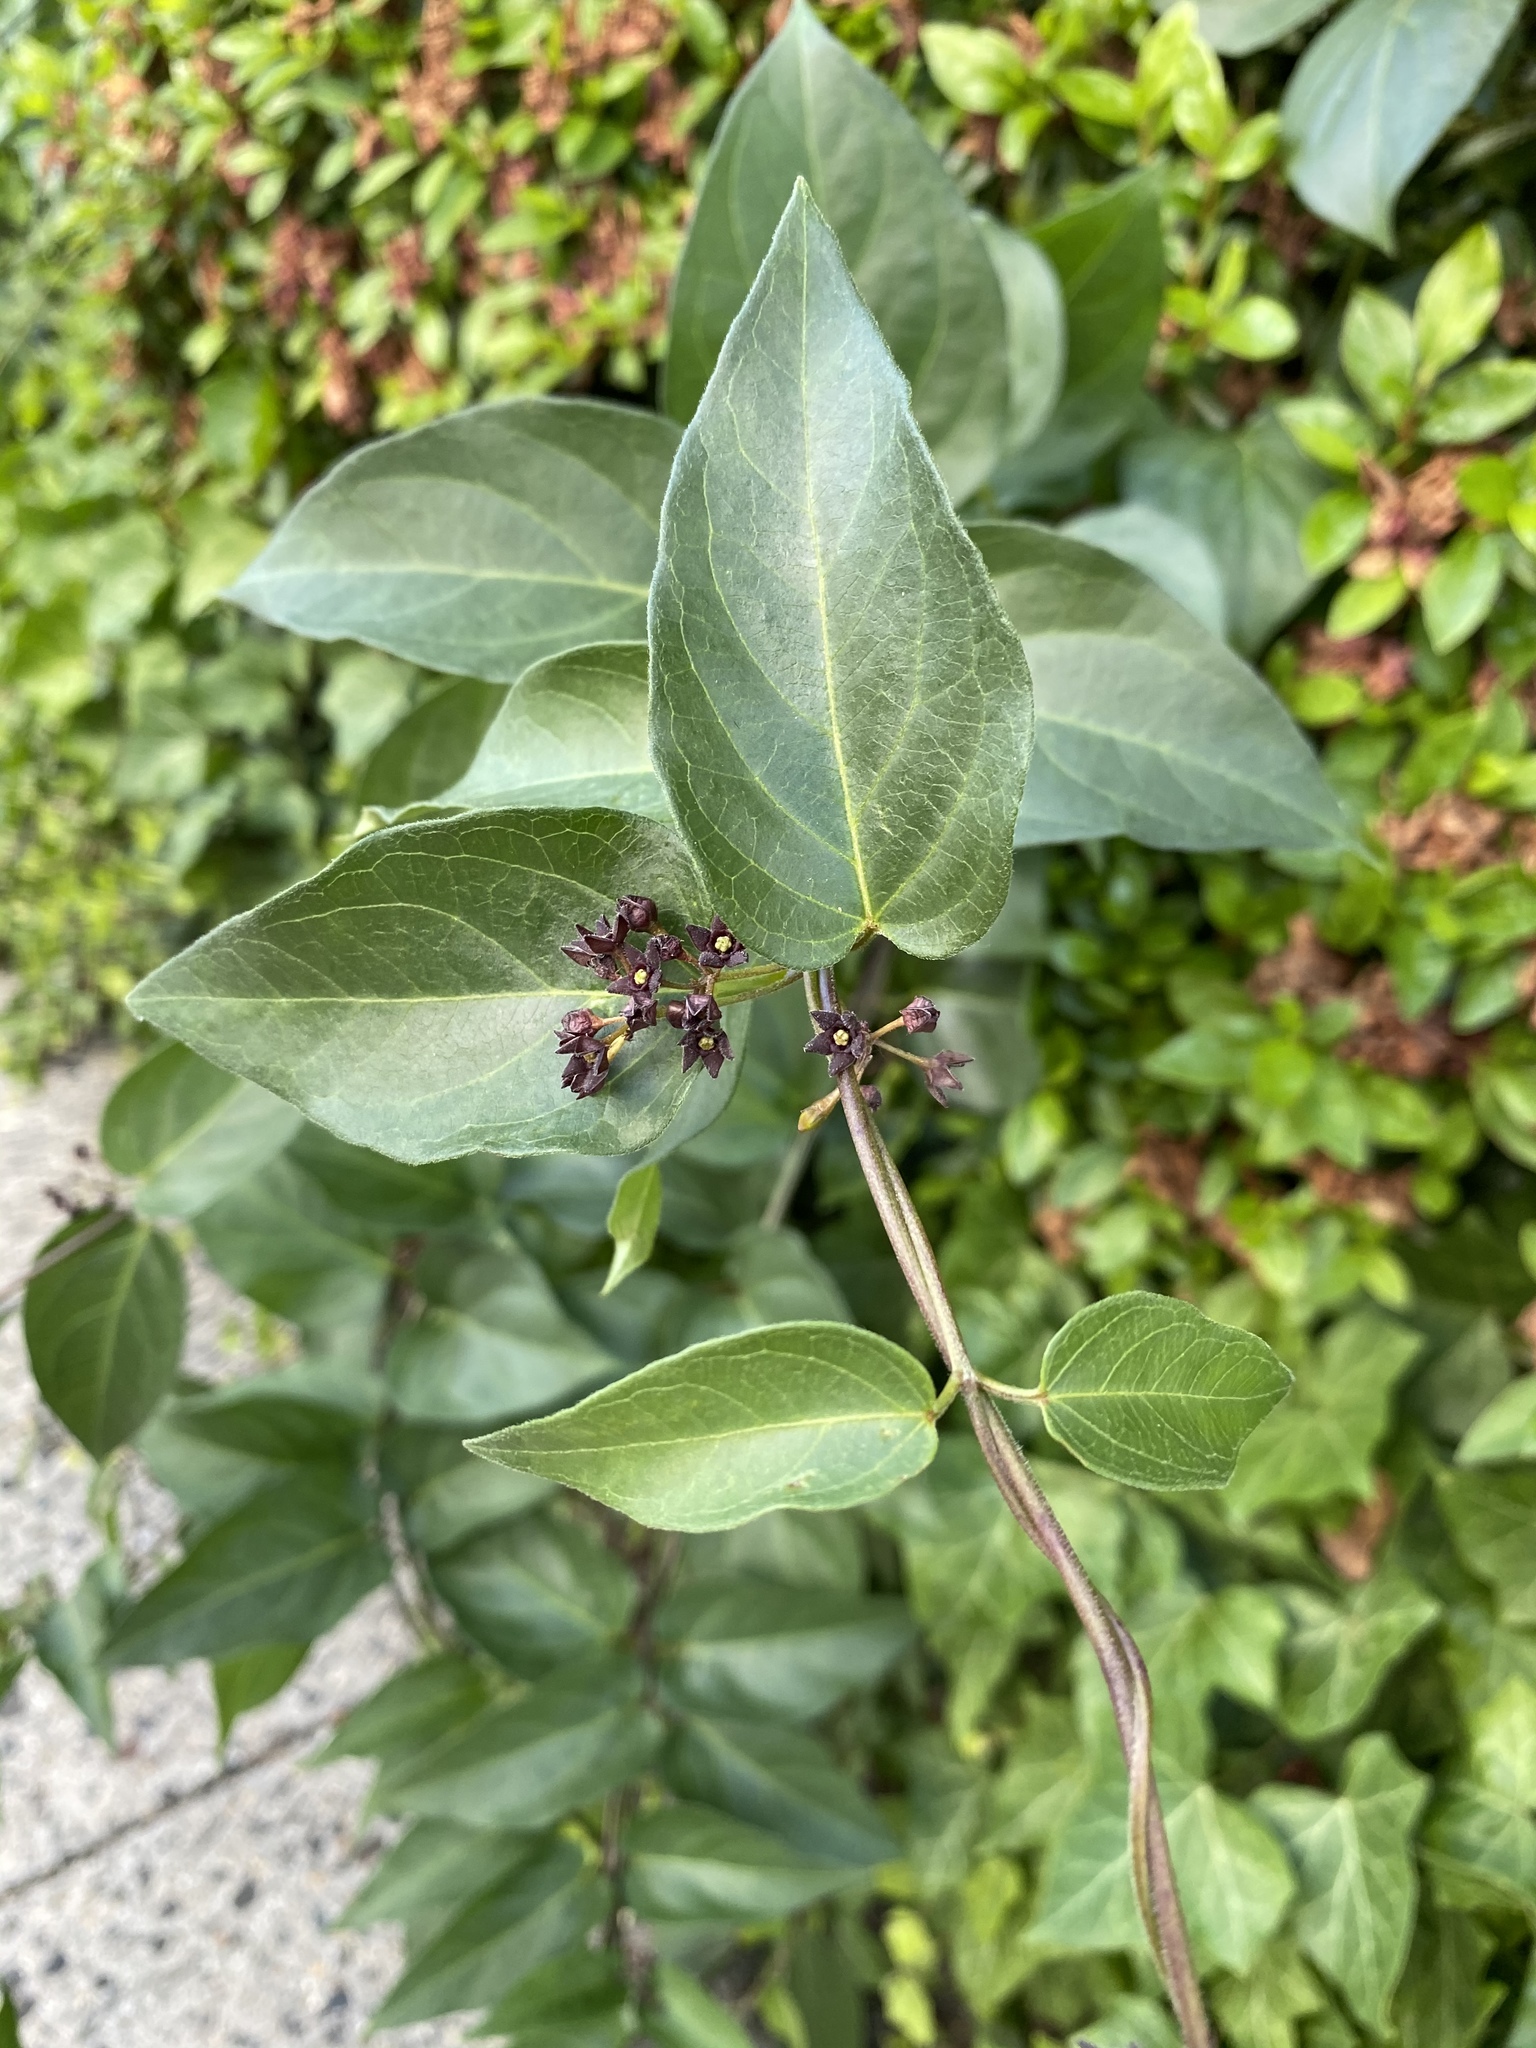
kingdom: Plantae
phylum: Tracheophyta
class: Magnoliopsida
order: Gentianales
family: Apocynaceae
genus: Vincetoxicum
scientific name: Vincetoxicum nigrum
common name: Black swallow-wort
